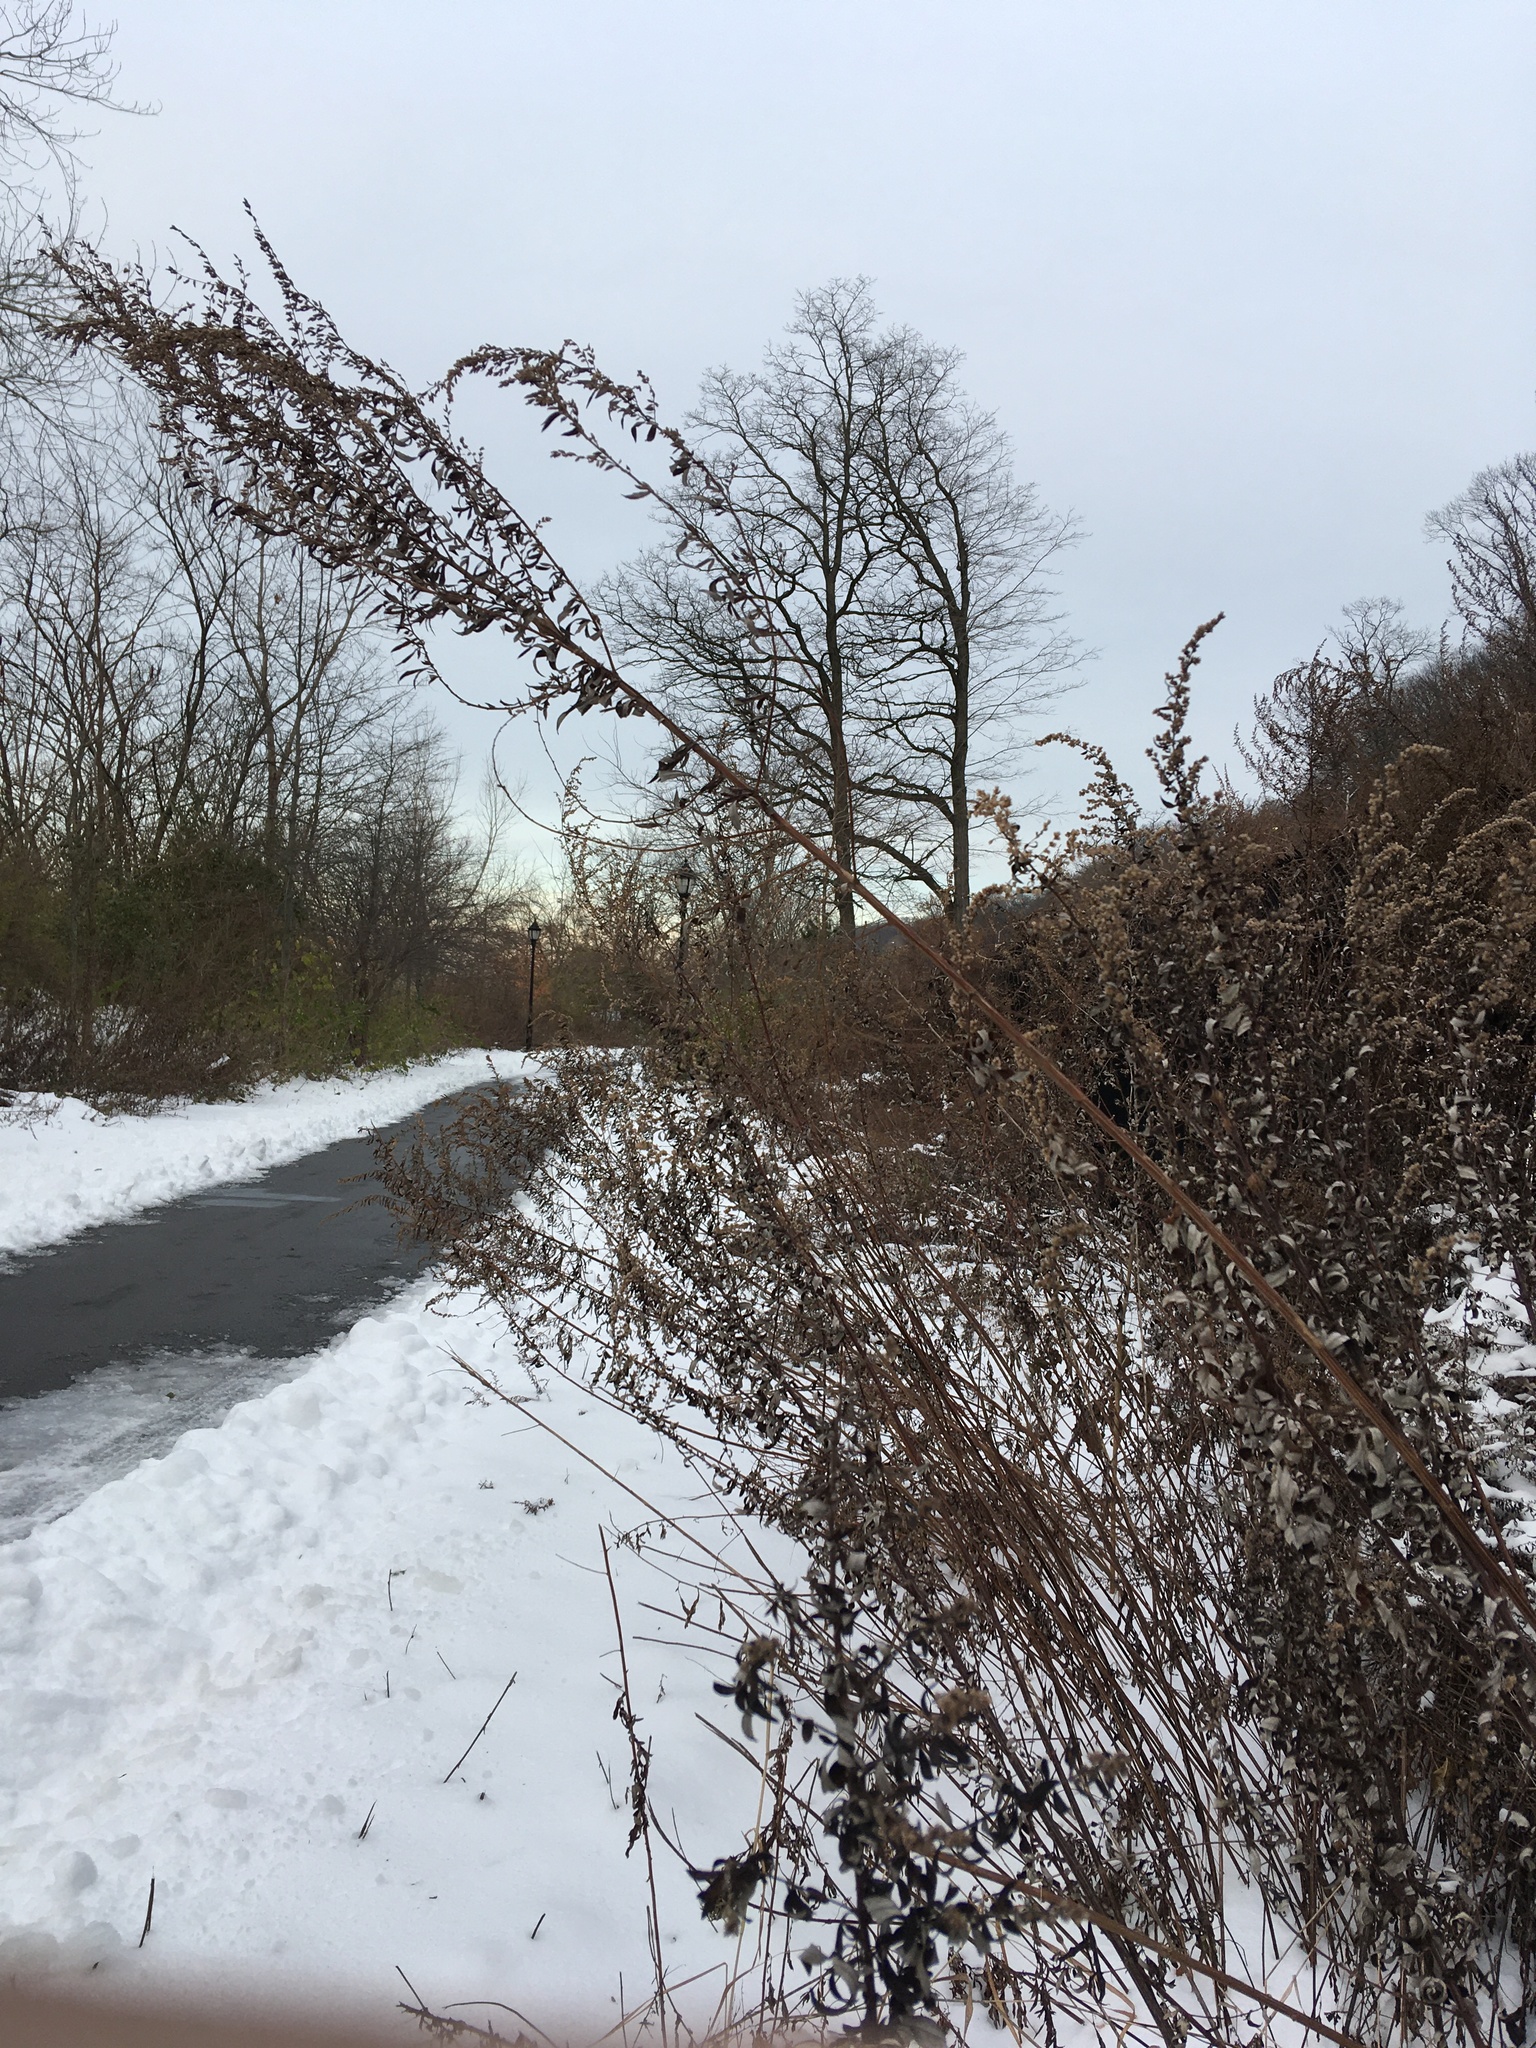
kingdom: Plantae
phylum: Tracheophyta
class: Magnoliopsida
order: Asterales
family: Asteraceae
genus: Artemisia
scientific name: Artemisia vulgaris
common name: Mugwort
